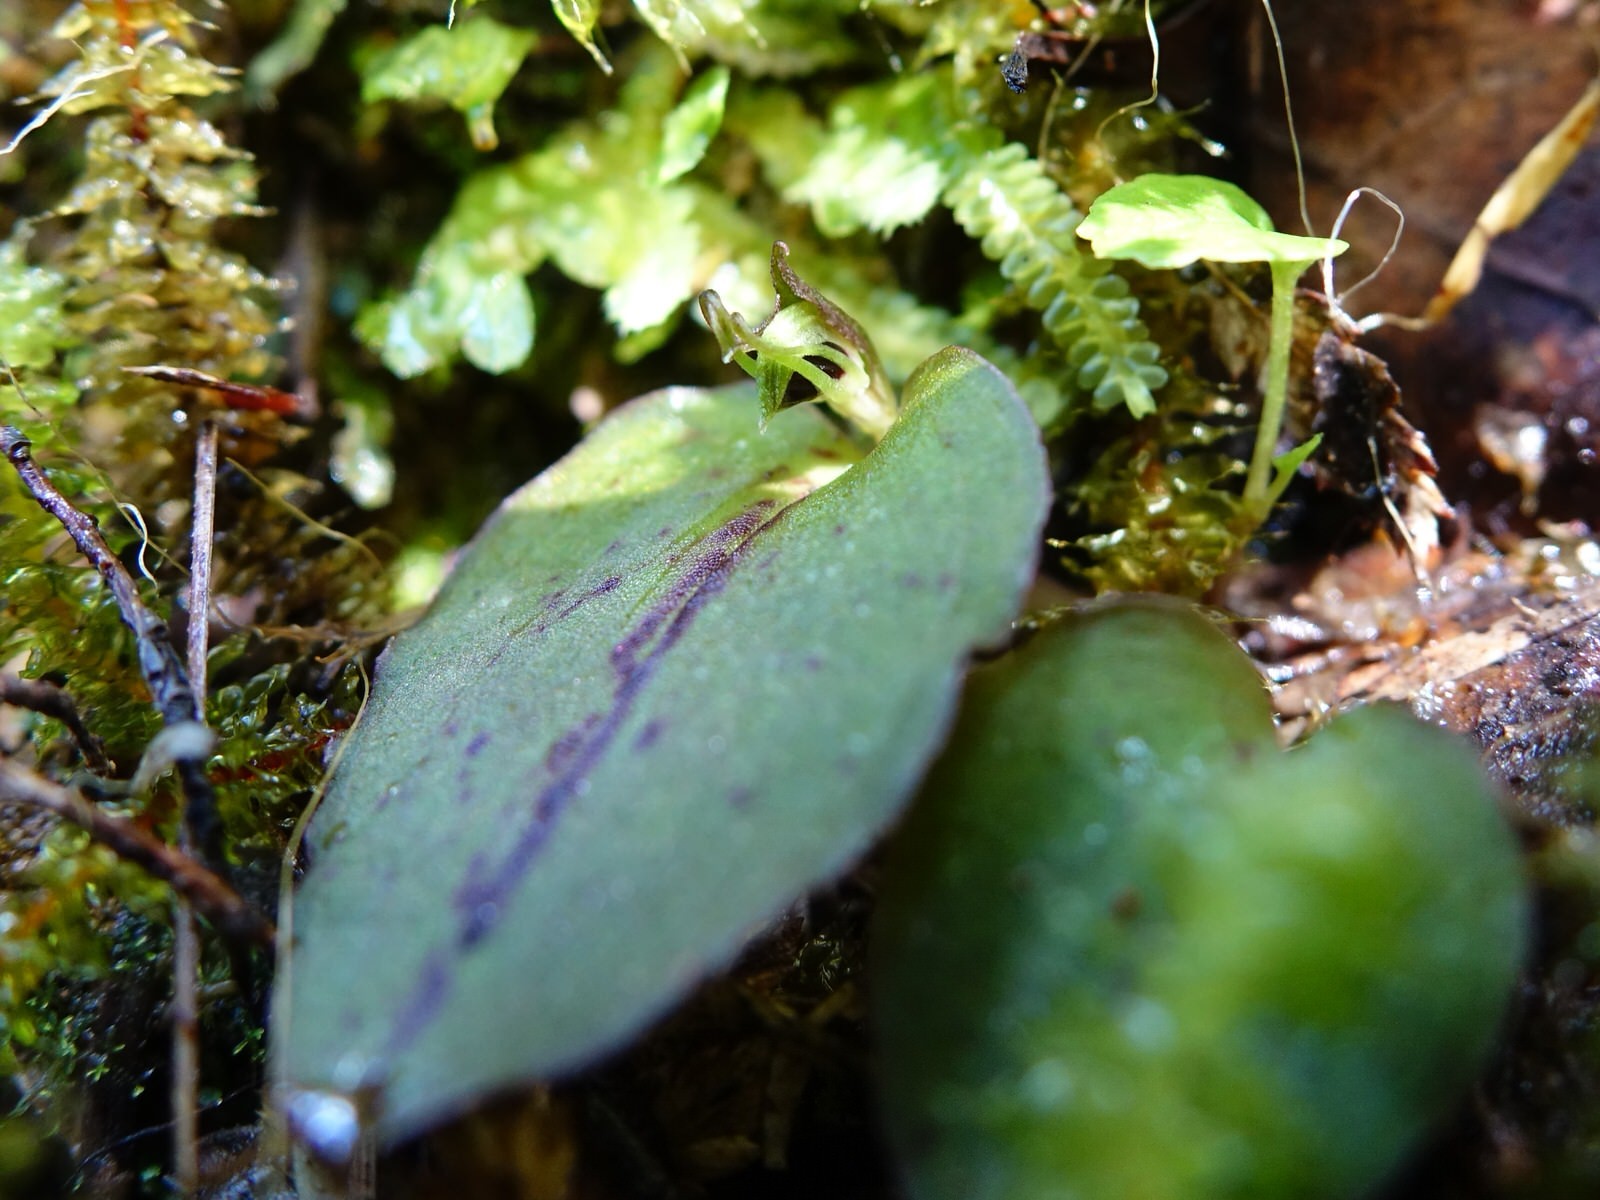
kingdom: Plantae
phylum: Tracheophyta
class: Liliopsida
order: Asparagales
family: Orchidaceae
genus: Corybas
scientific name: Corybas oblongus
